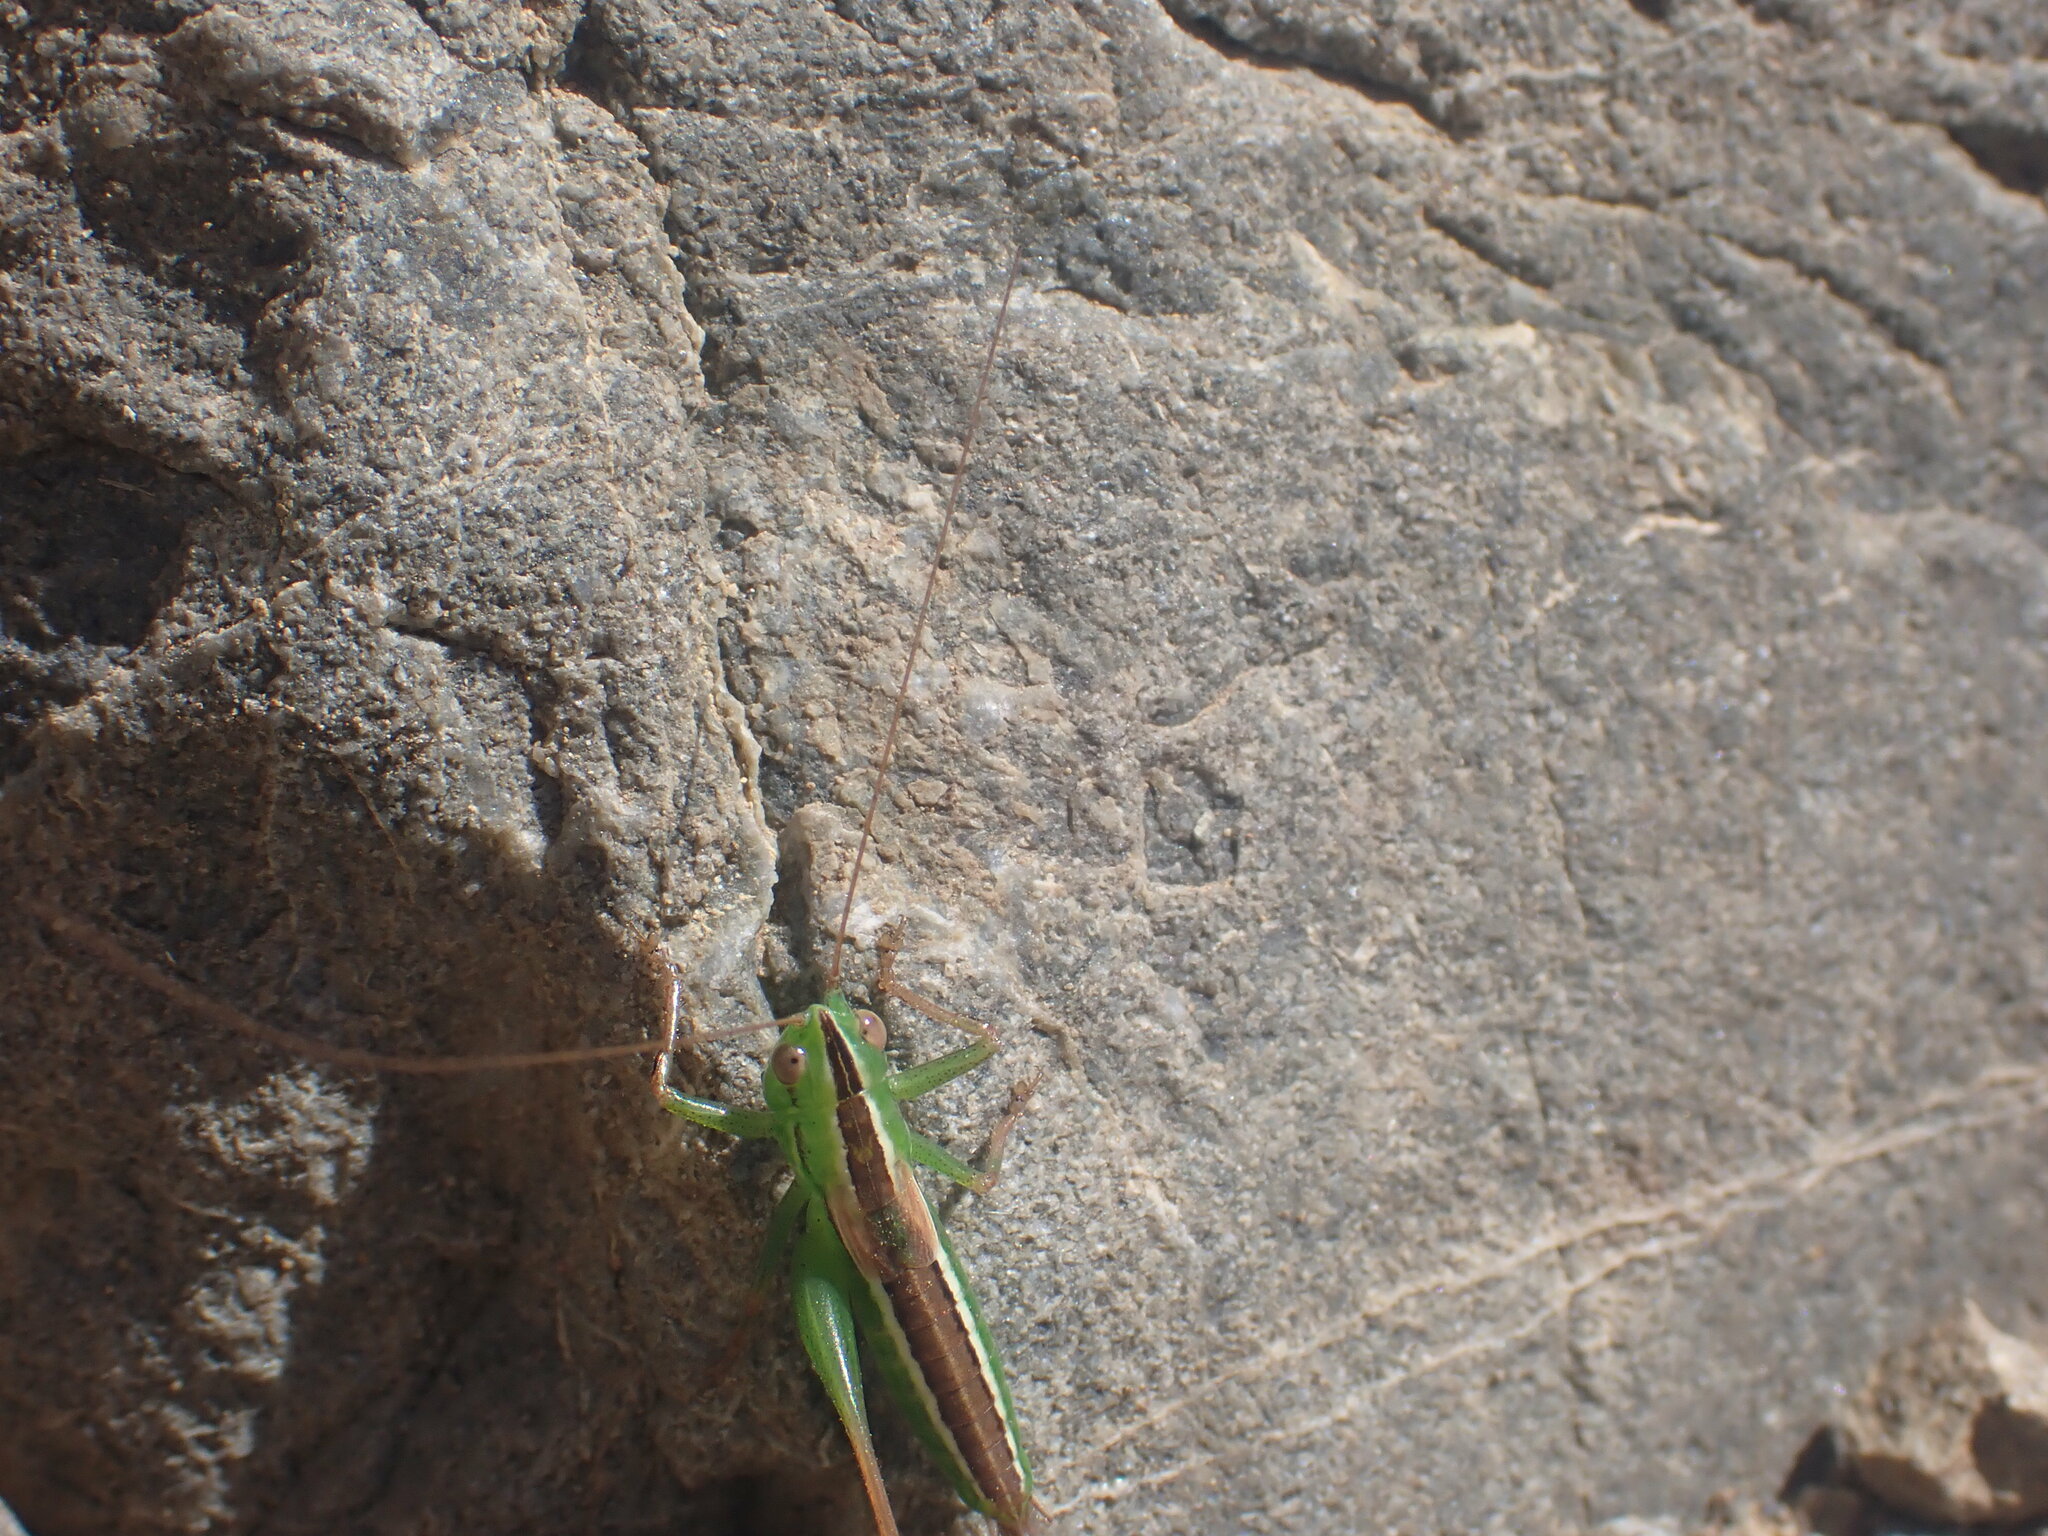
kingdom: Animalia
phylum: Arthropoda
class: Insecta
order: Orthoptera
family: Tettigoniidae
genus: Conocephalus
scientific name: Conocephalus bilineatus
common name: Small meadow katydid
